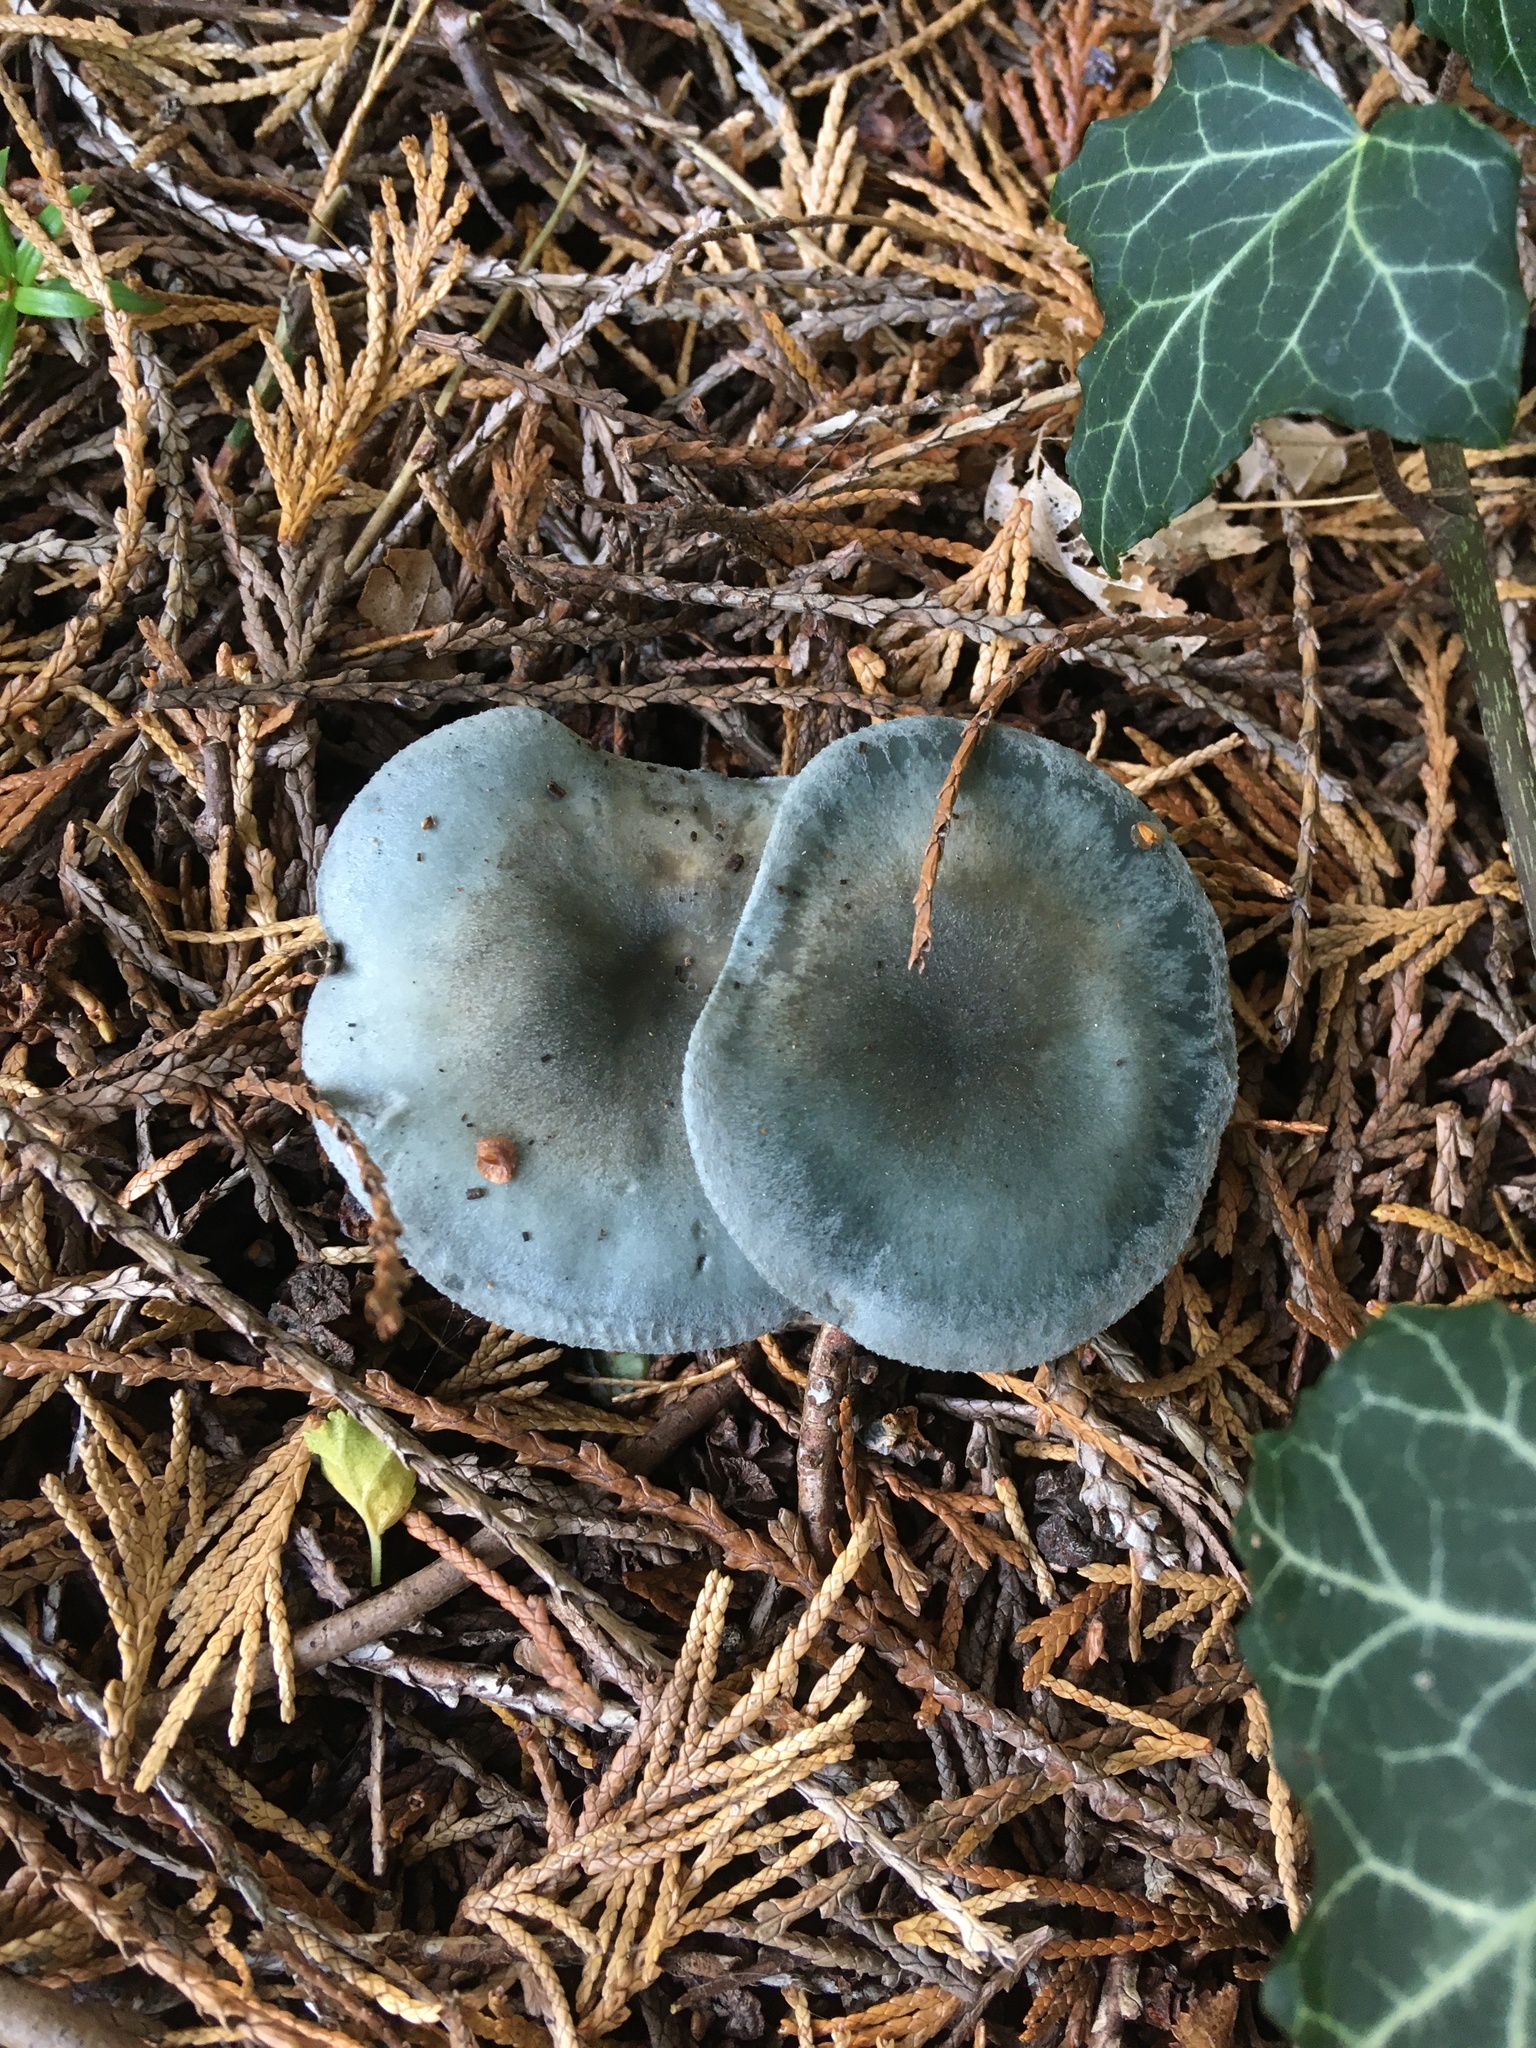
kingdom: Fungi
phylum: Basidiomycota
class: Agaricomycetes
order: Agaricales
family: Tricholomataceae
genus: Collybia
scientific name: Collybia
